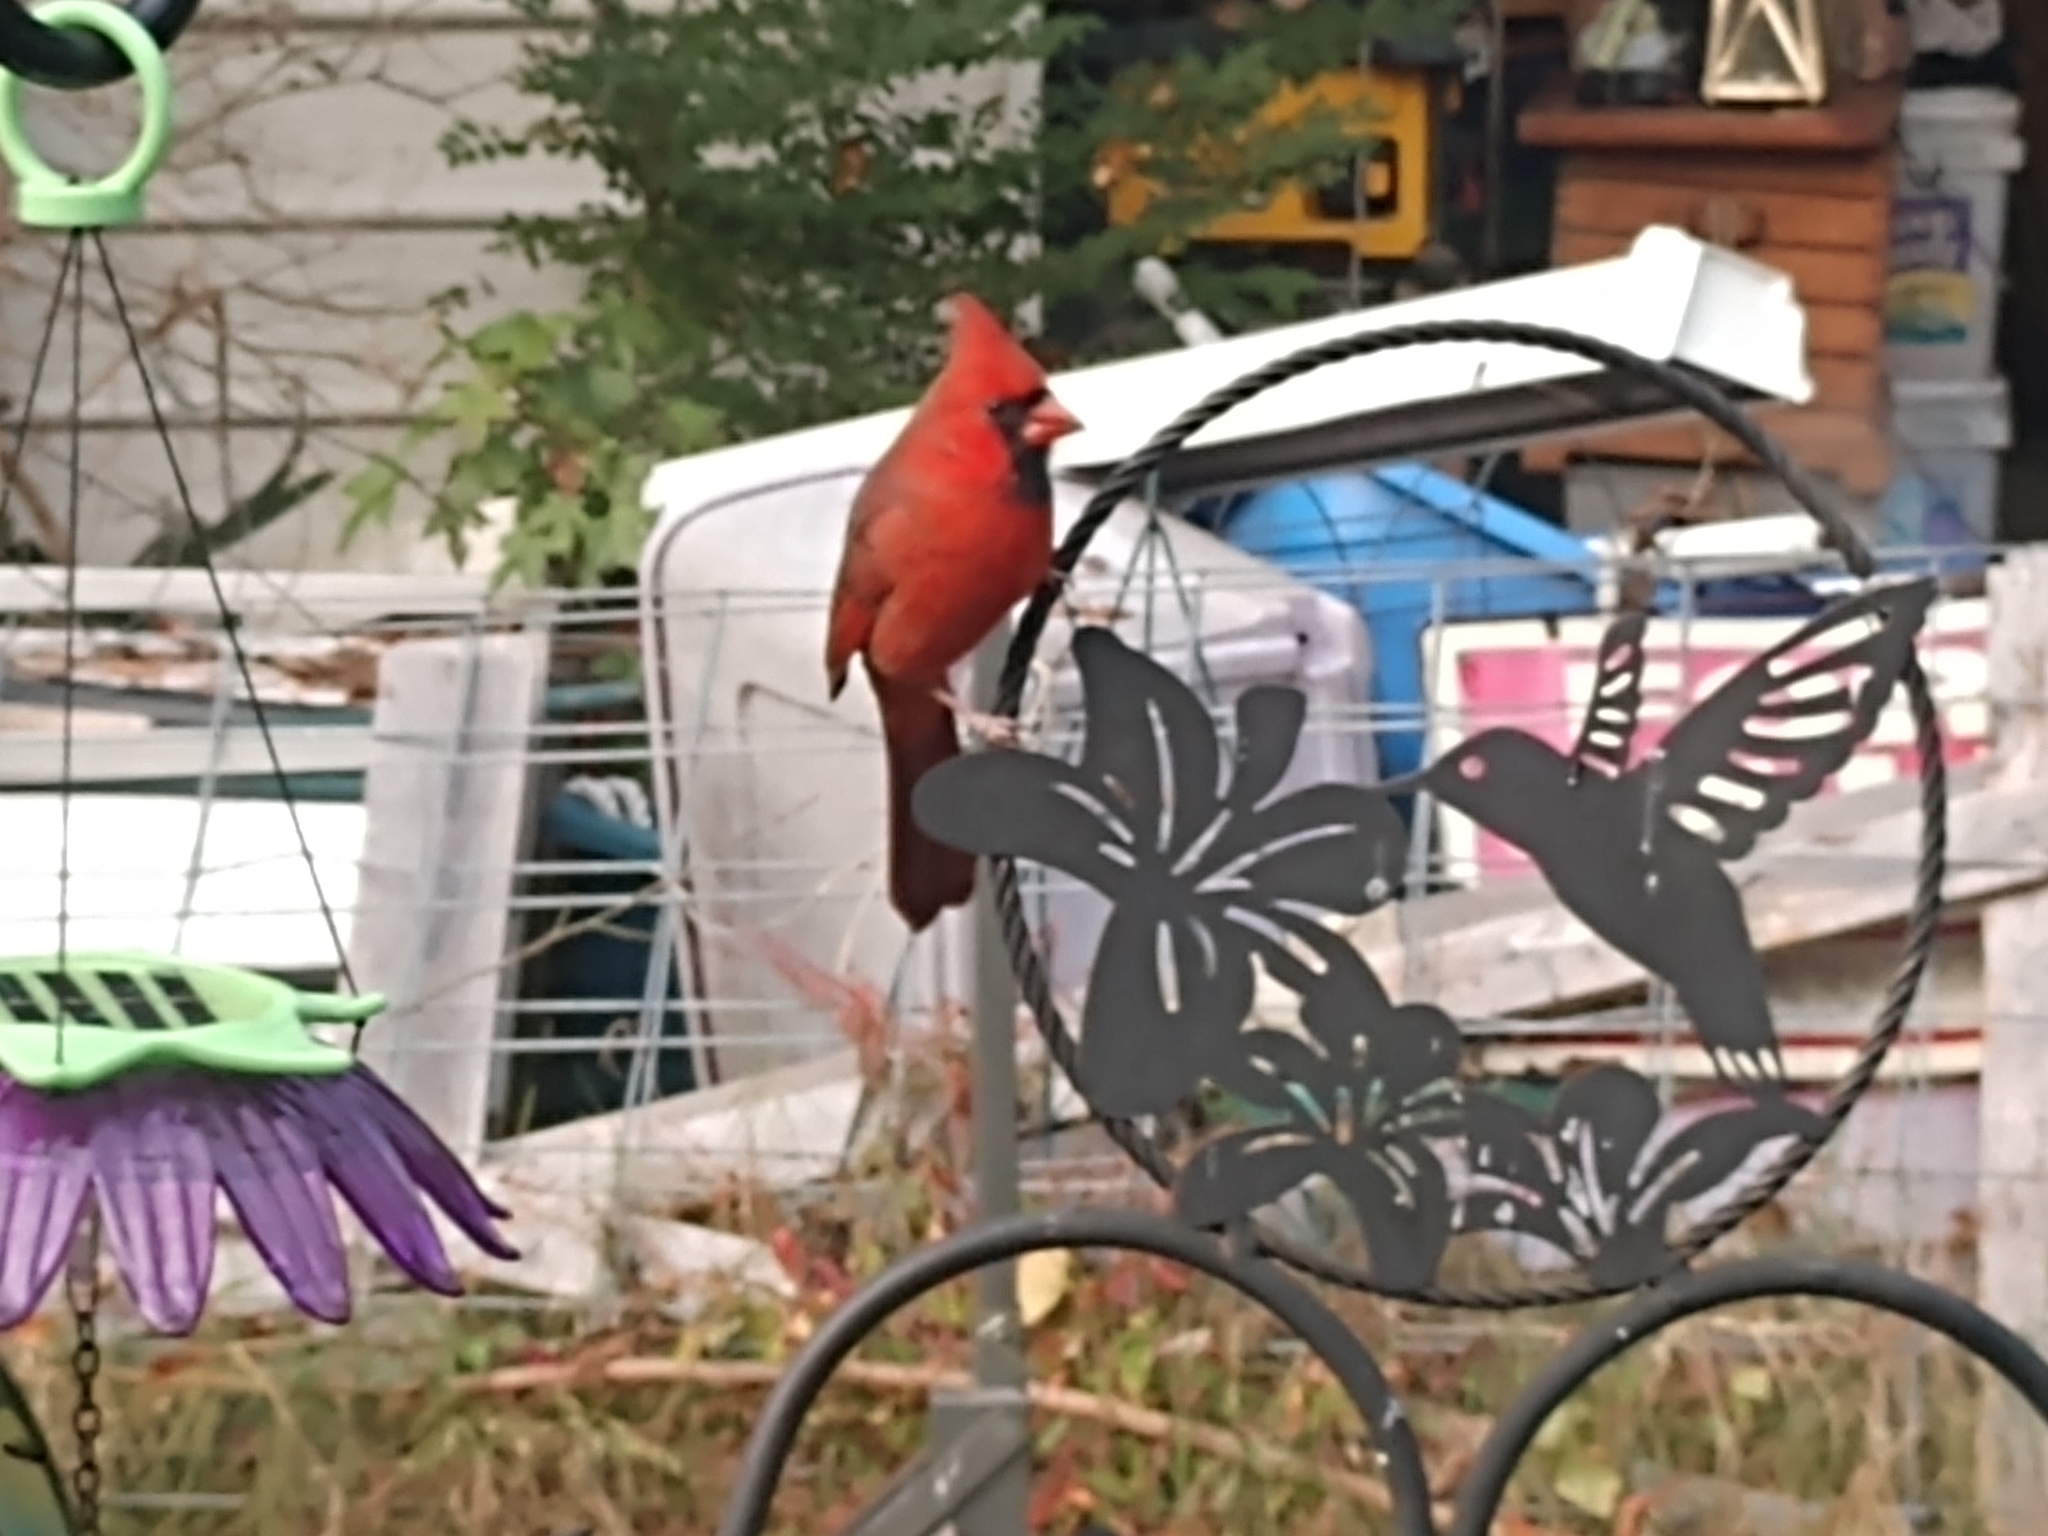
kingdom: Animalia
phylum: Chordata
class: Aves
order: Passeriformes
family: Cardinalidae
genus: Cardinalis
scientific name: Cardinalis cardinalis
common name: Northern cardinal
